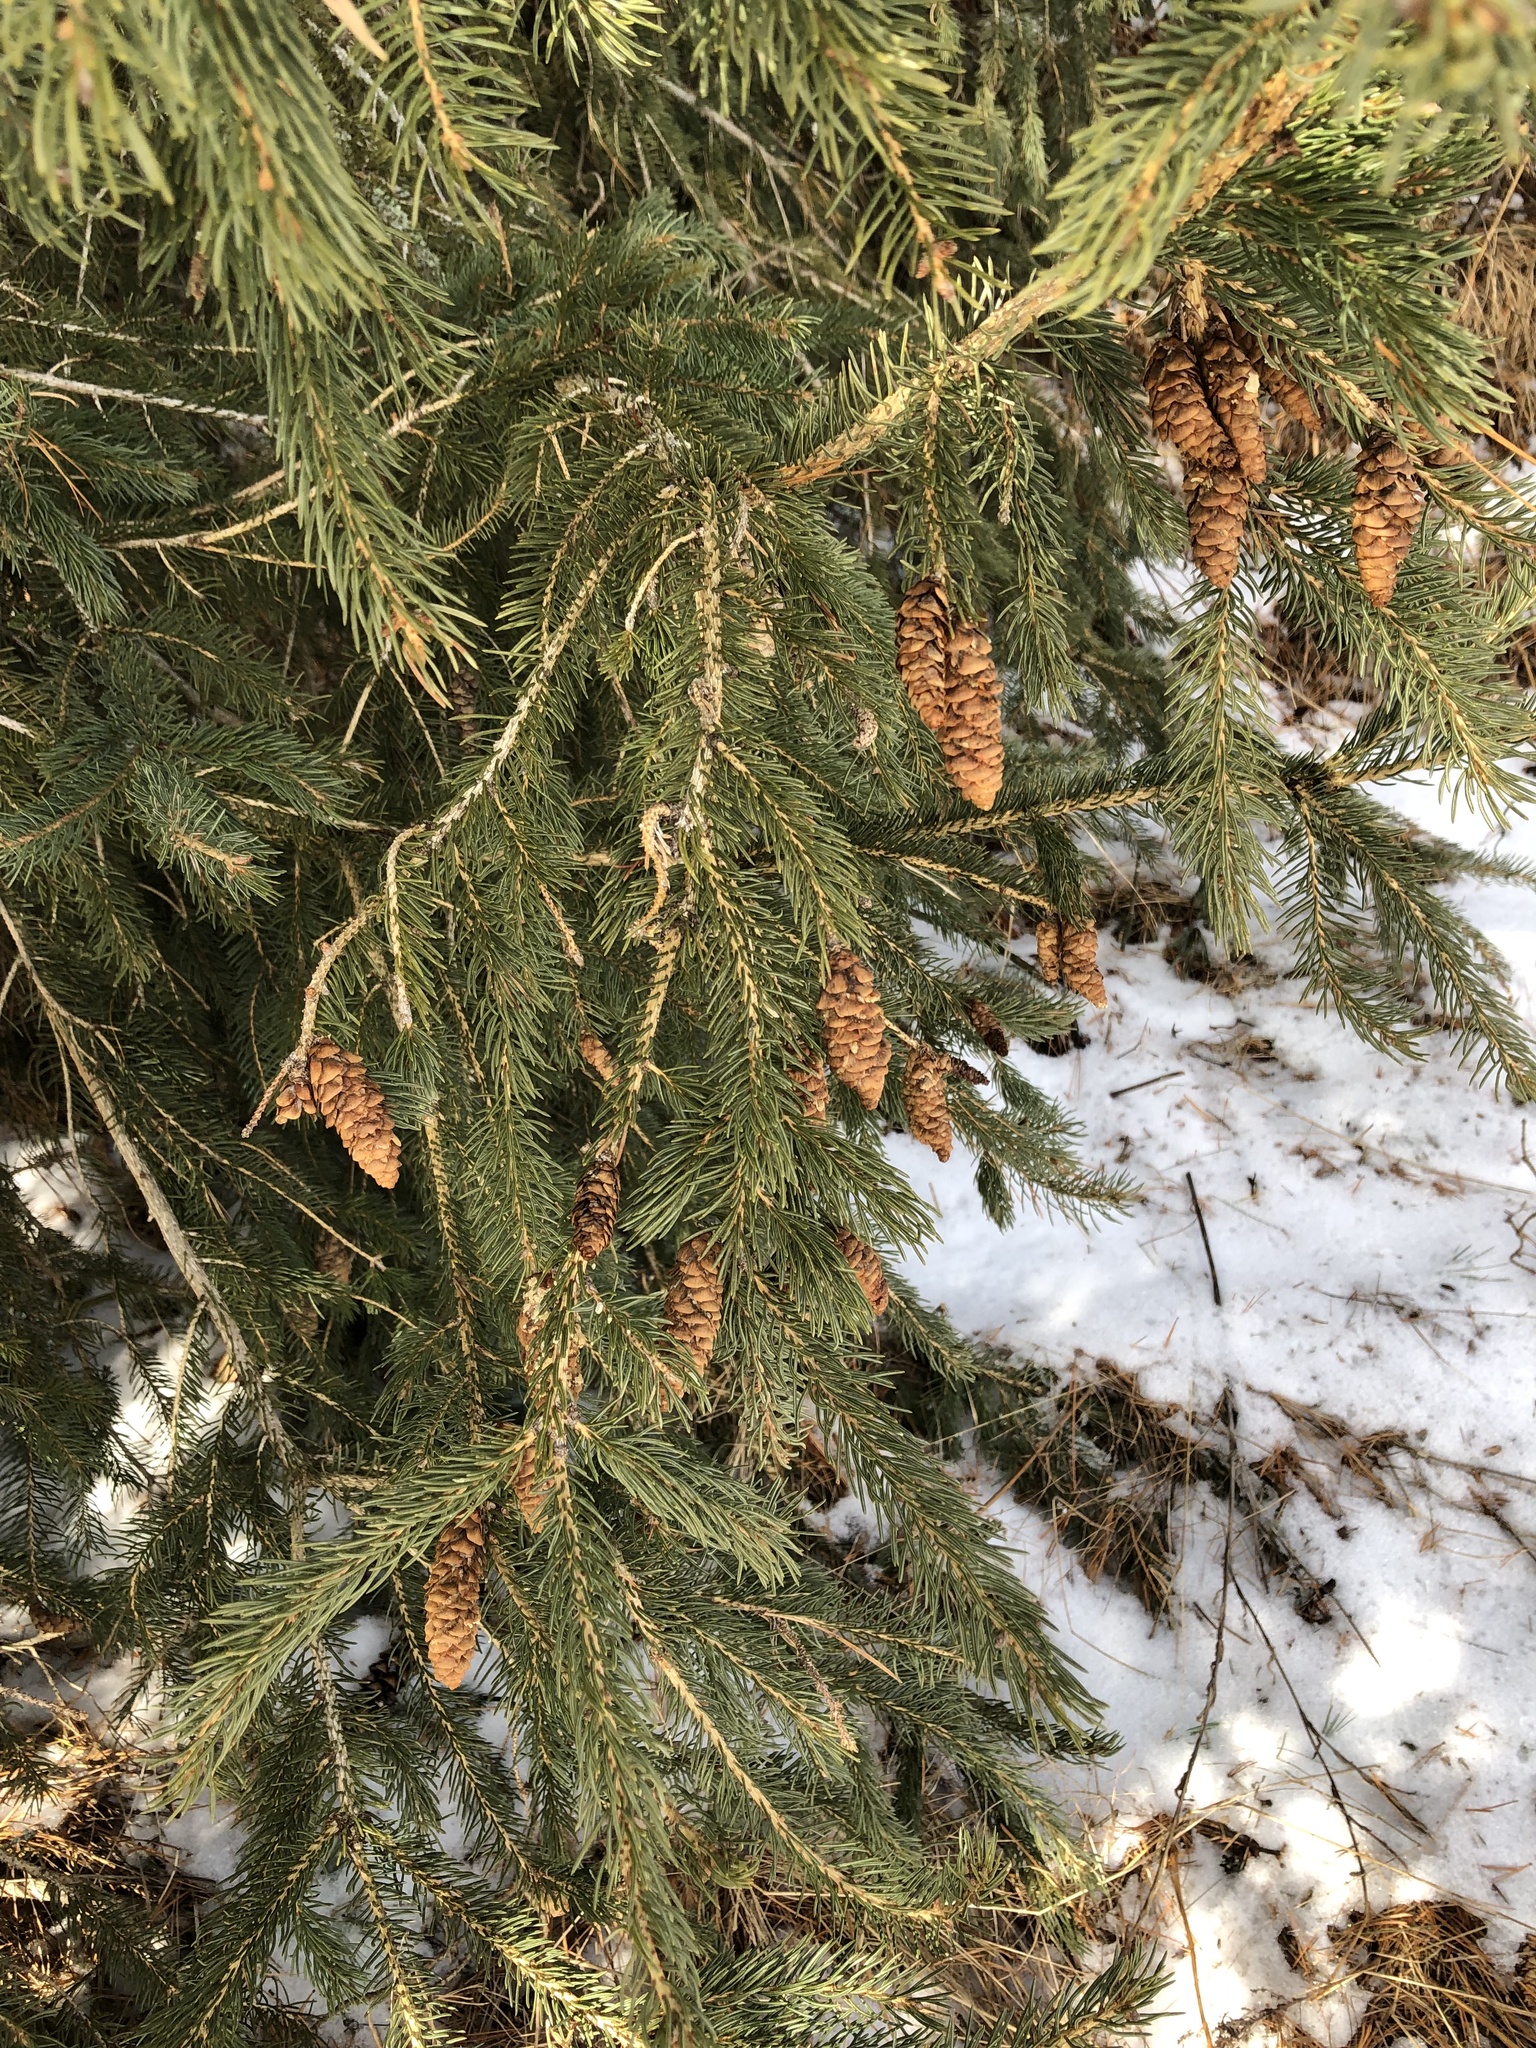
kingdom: Plantae
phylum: Tracheophyta
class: Pinopsida
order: Pinales
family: Pinaceae
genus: Picea
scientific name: Picea glauca
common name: White spruce
